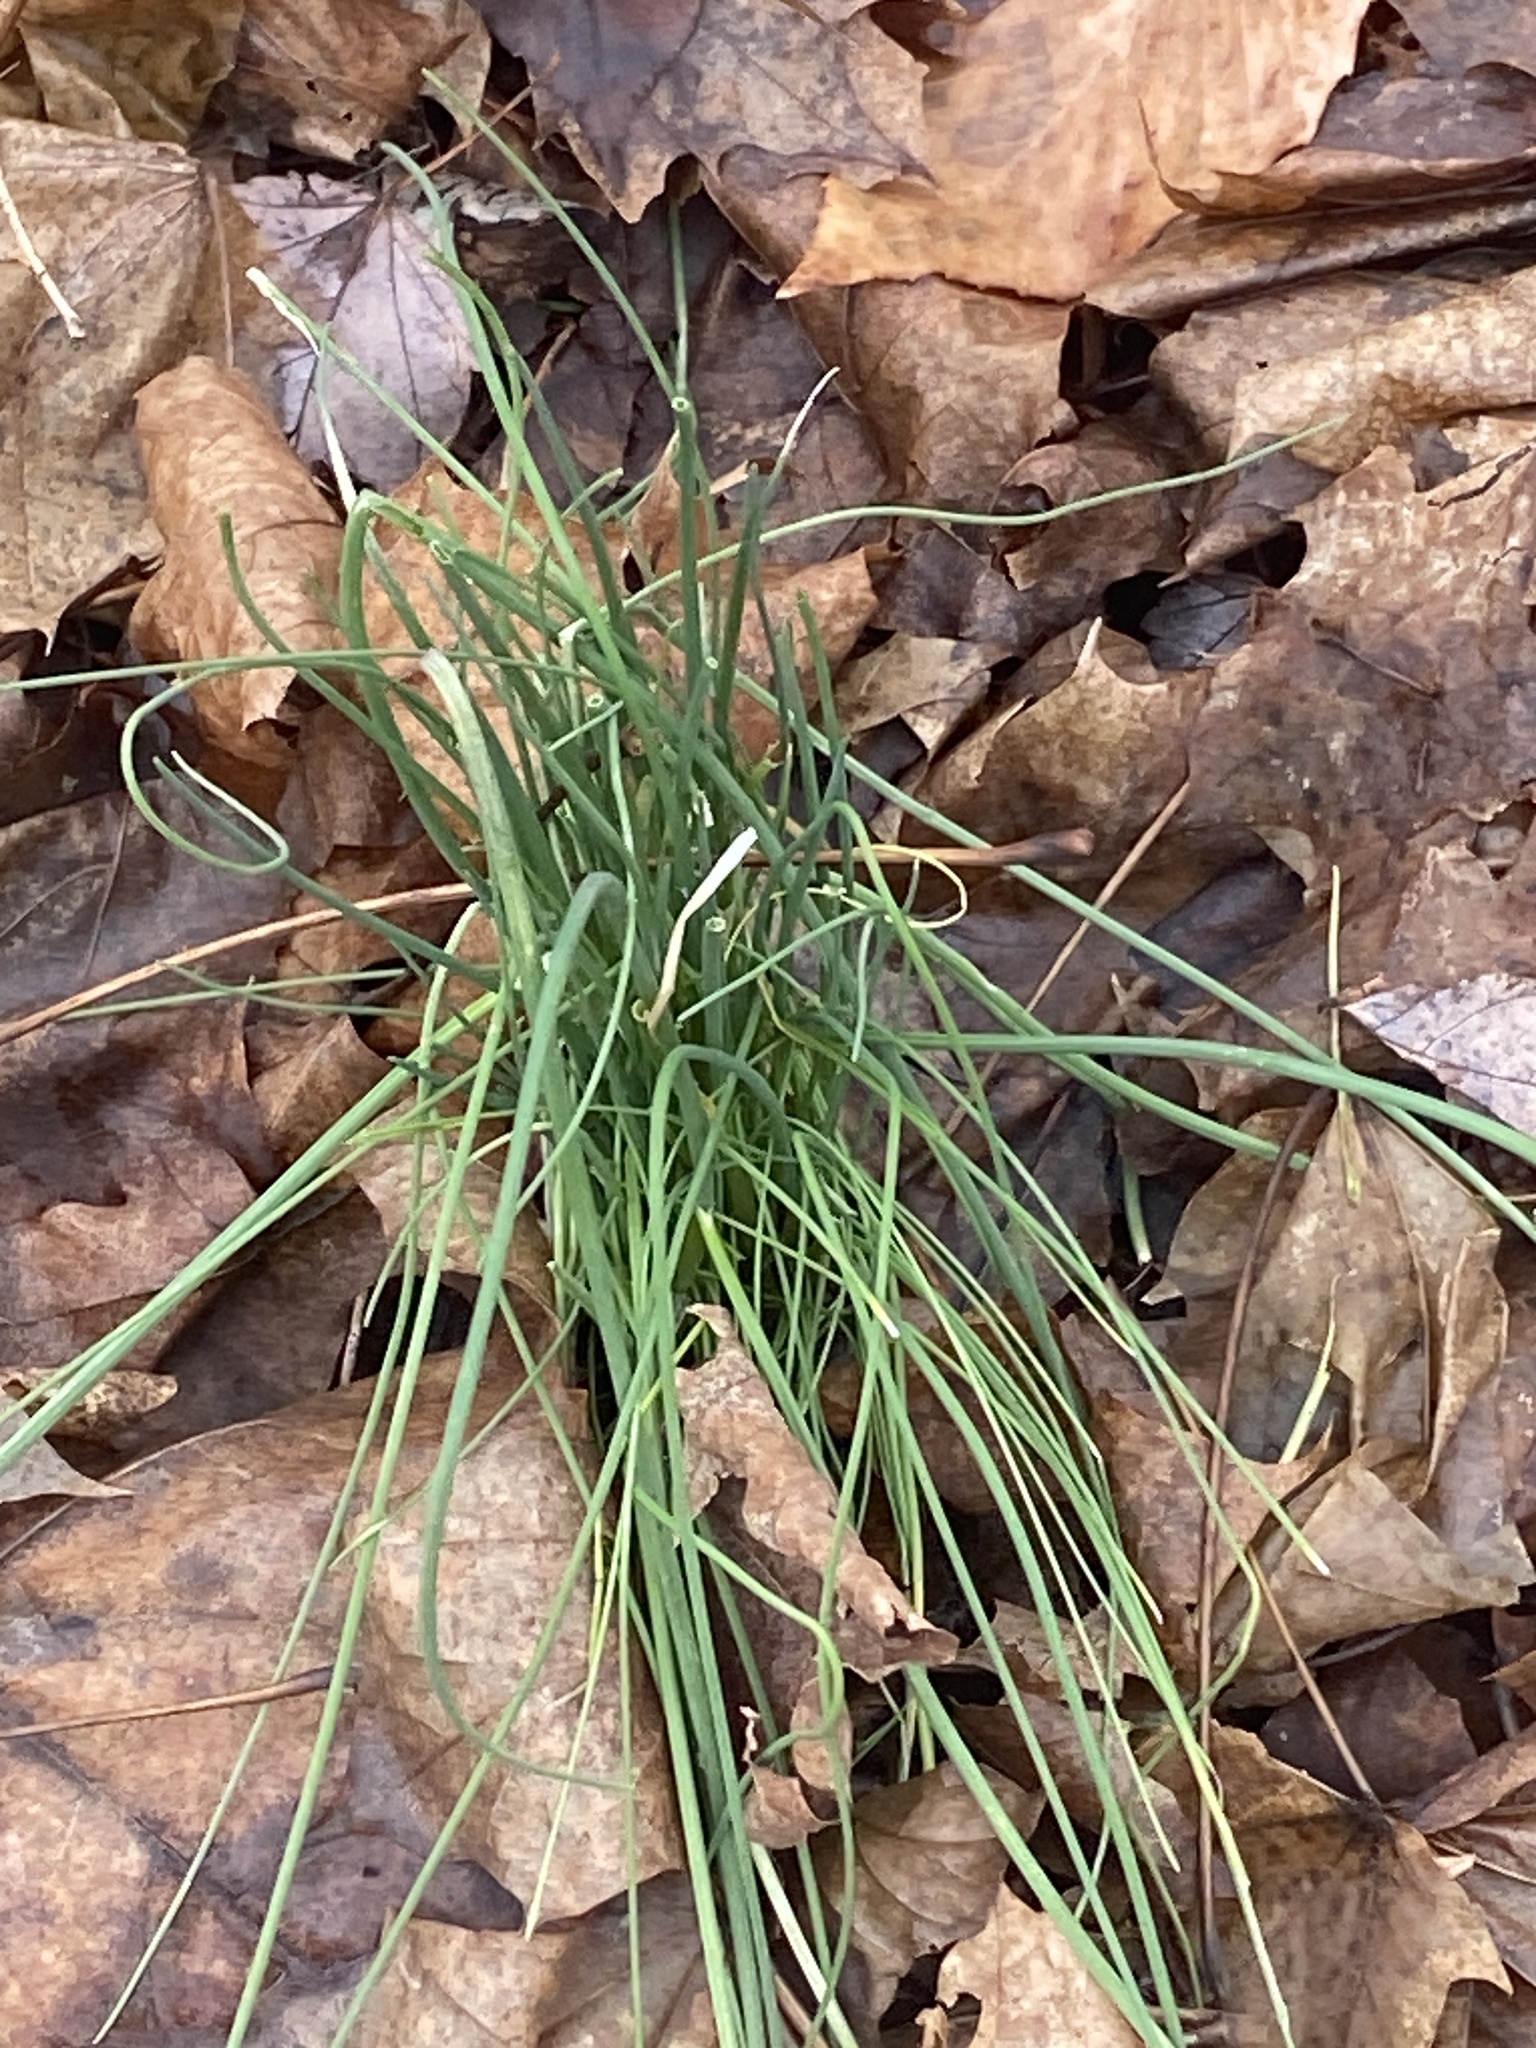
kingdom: Plantae
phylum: Tracheophyta
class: Liliopsida
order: Asparagales
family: Amaryllidaceae
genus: Allium
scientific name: Allium vineale
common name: Crow garlic
